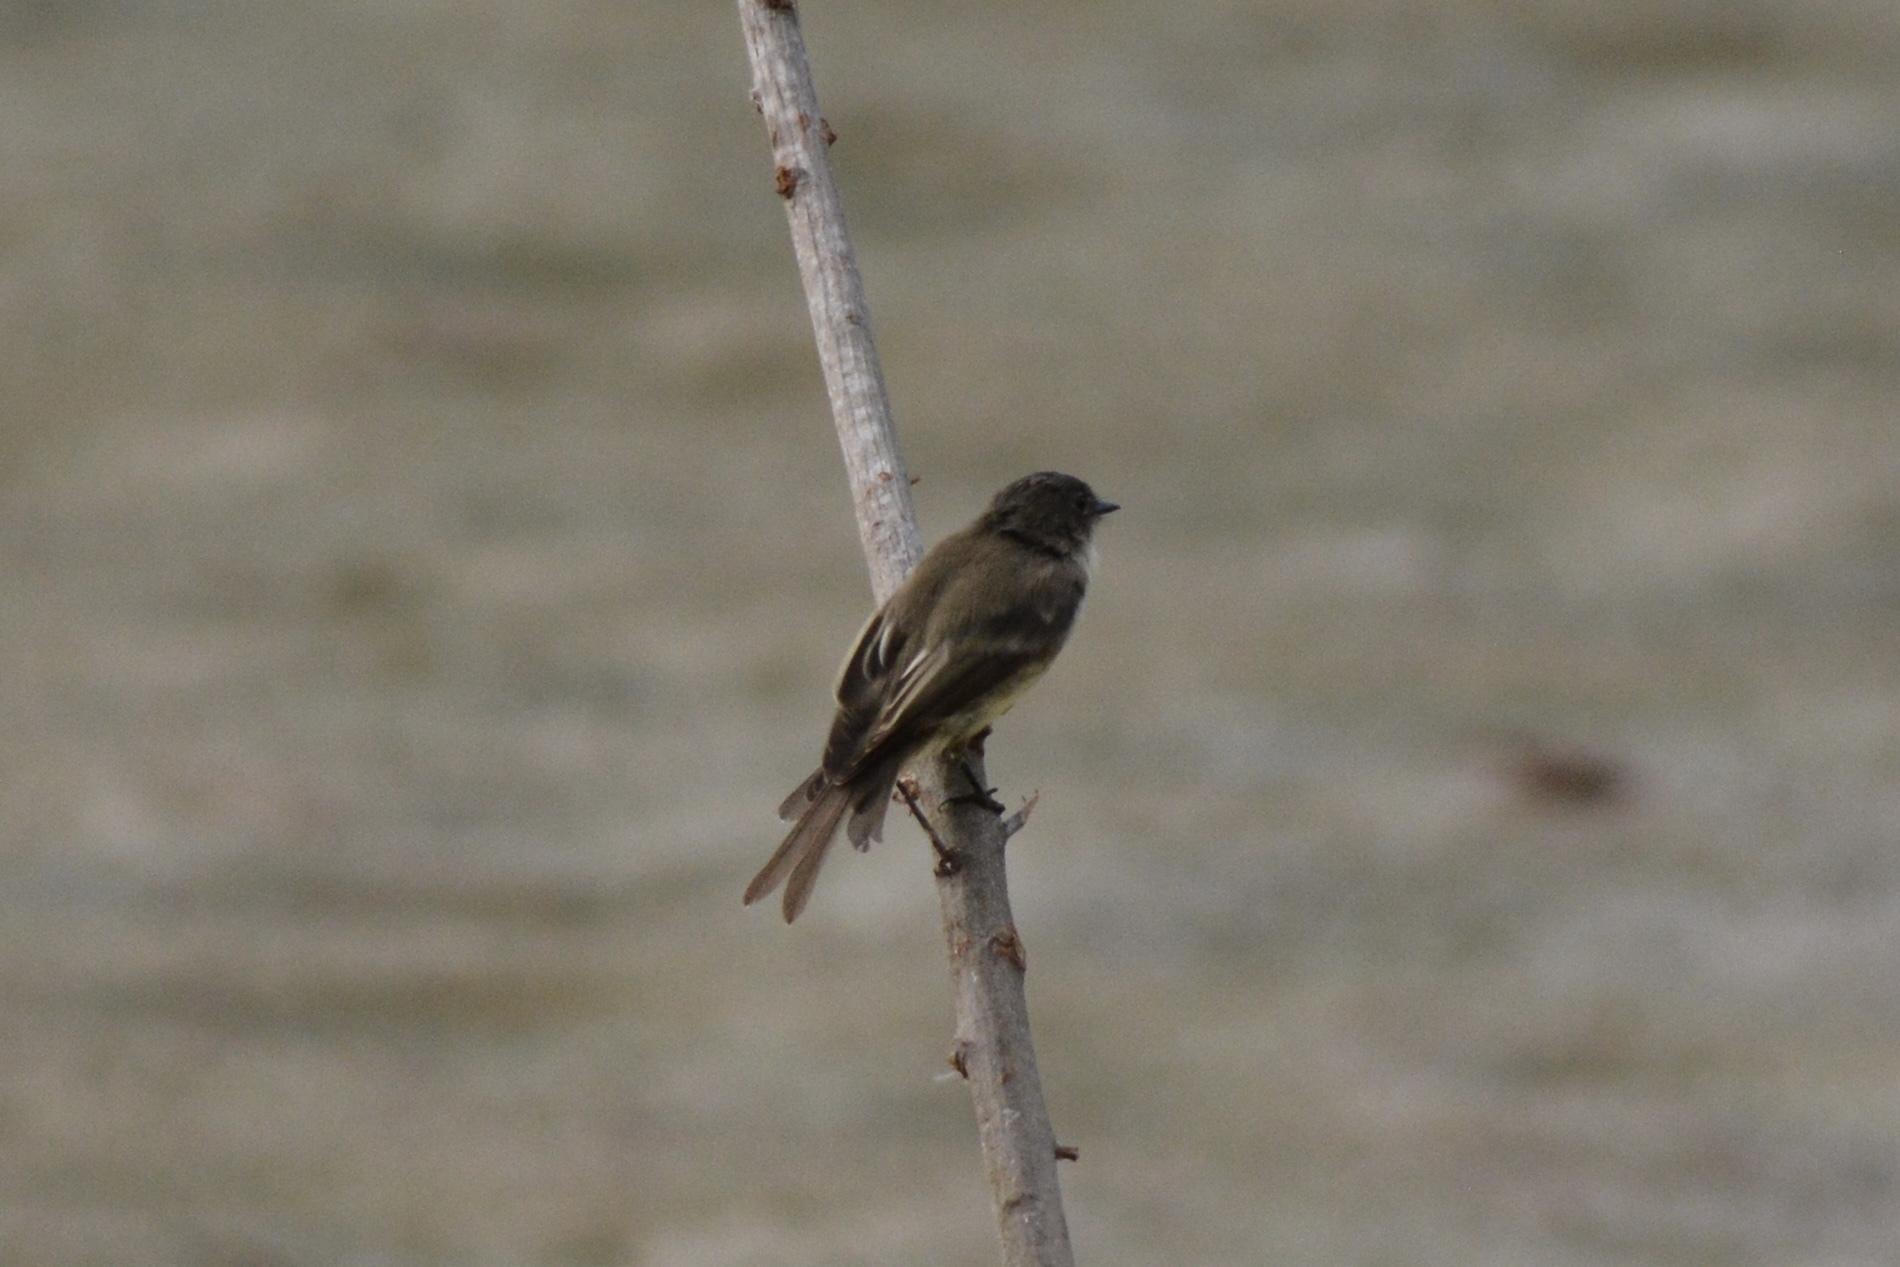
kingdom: Animalia
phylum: Chordata
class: Aves
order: Passeriformes
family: Tyrannidae
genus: Sayornis
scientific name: Sayornis phoebe
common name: Eastern phoebe
